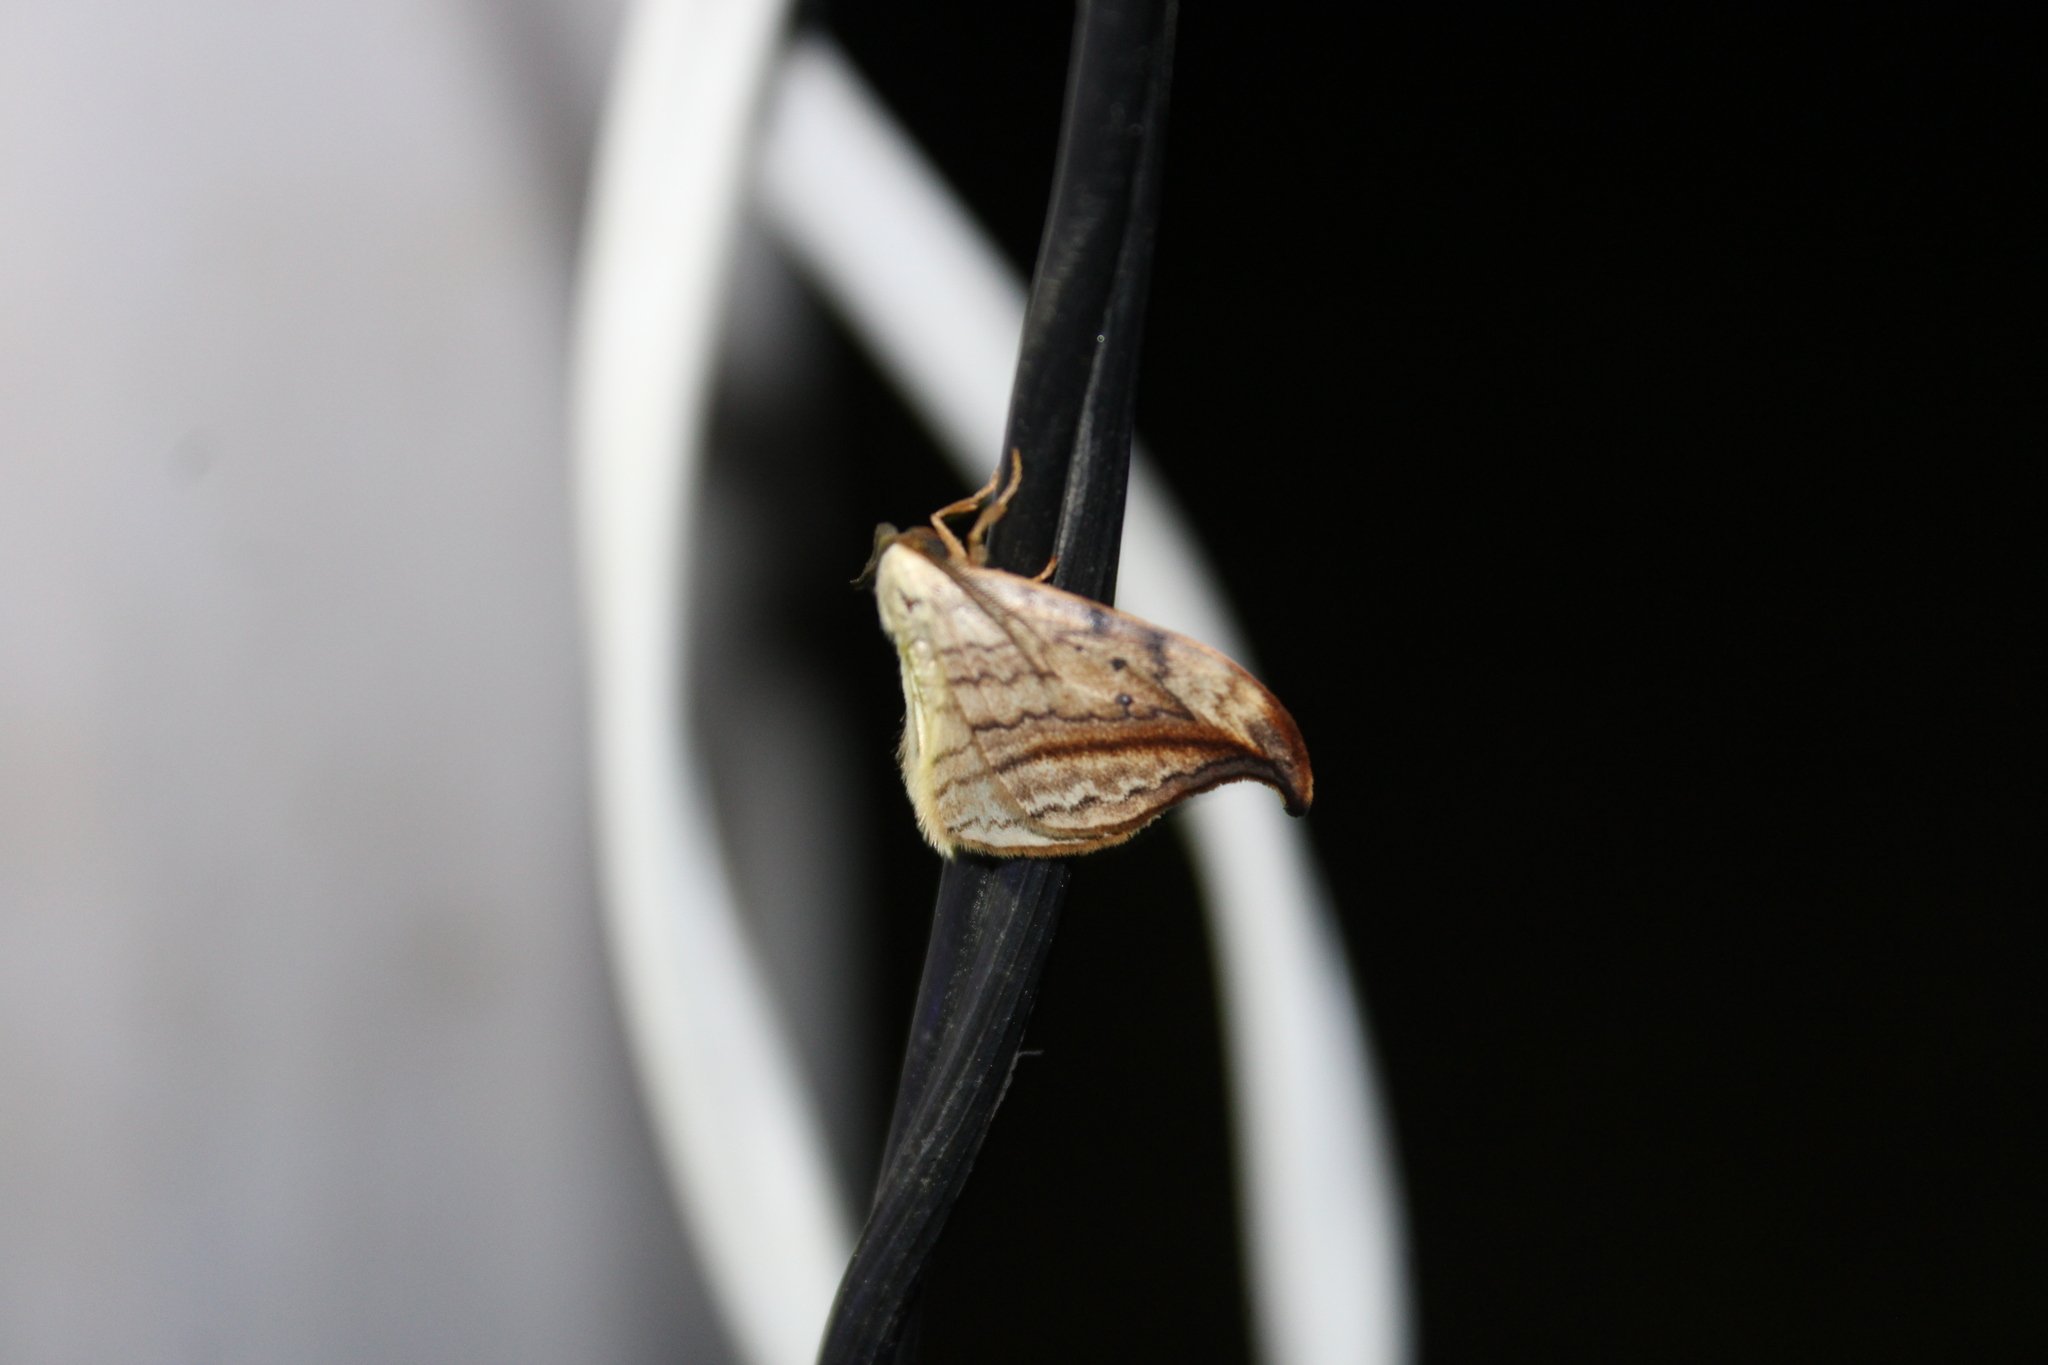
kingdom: Animalia
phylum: Arthropoda
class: Insecta
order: Lepidoptera
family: Drepanidae
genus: Drepana
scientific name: Drepana arcuata
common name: Arched hooktip moth
